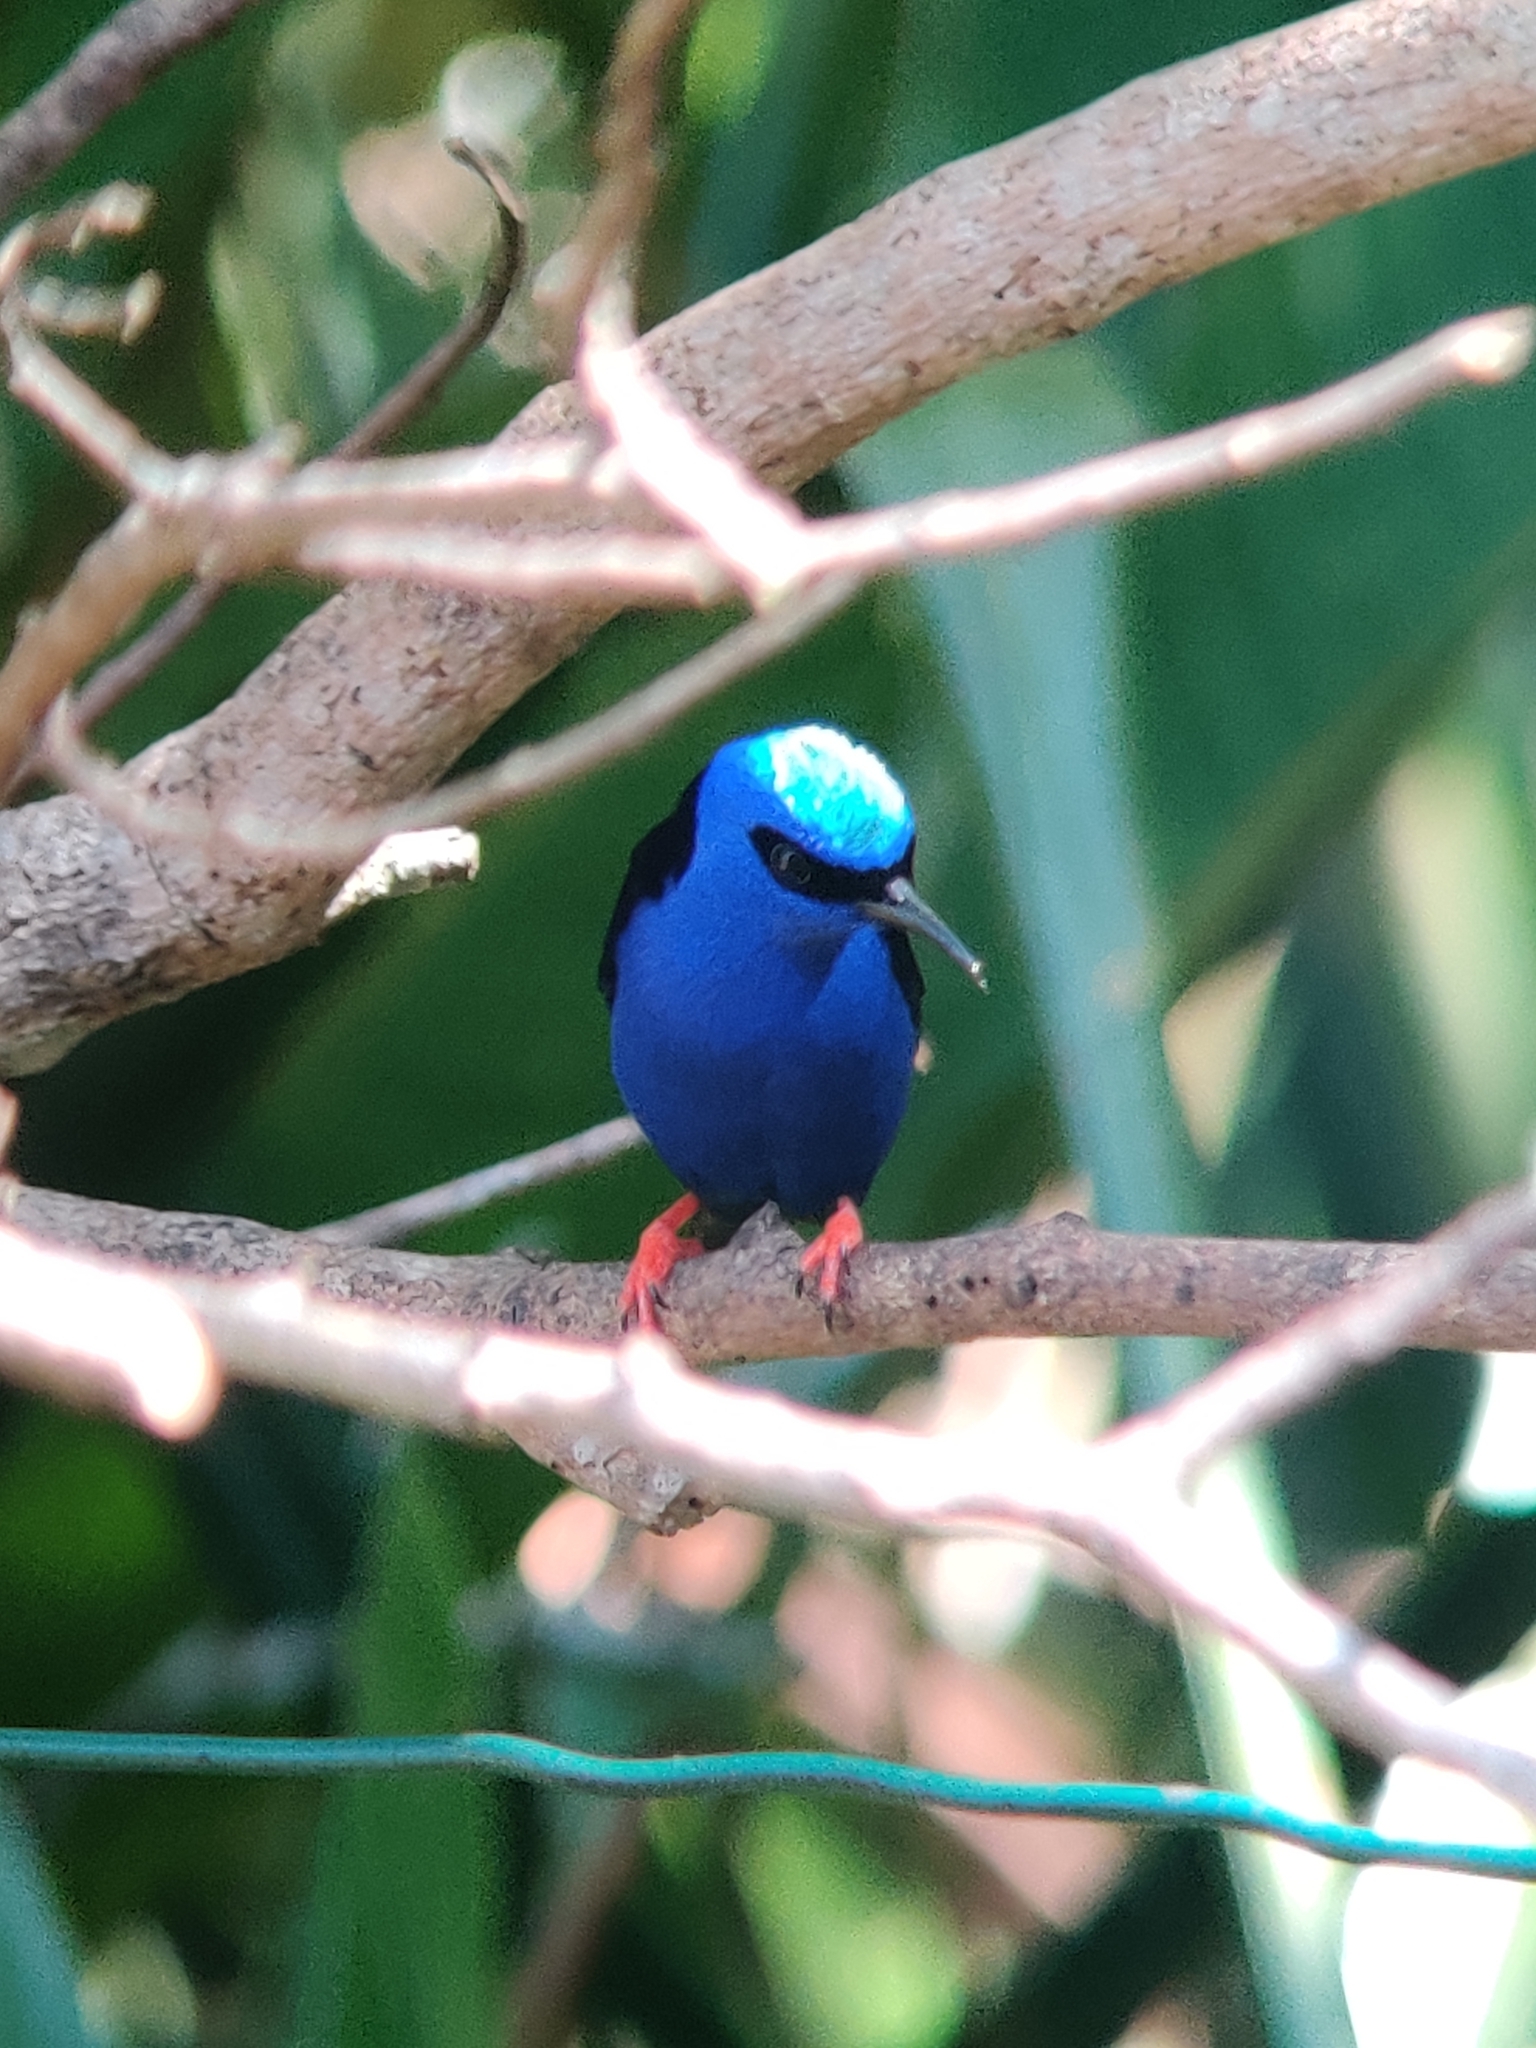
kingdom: Animalia
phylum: Chordata
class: Aves
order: Passeriformes
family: Thraupidae
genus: Cyanerpes
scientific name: Cyanerpes cyaneus
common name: Red-legged honeycreeper
